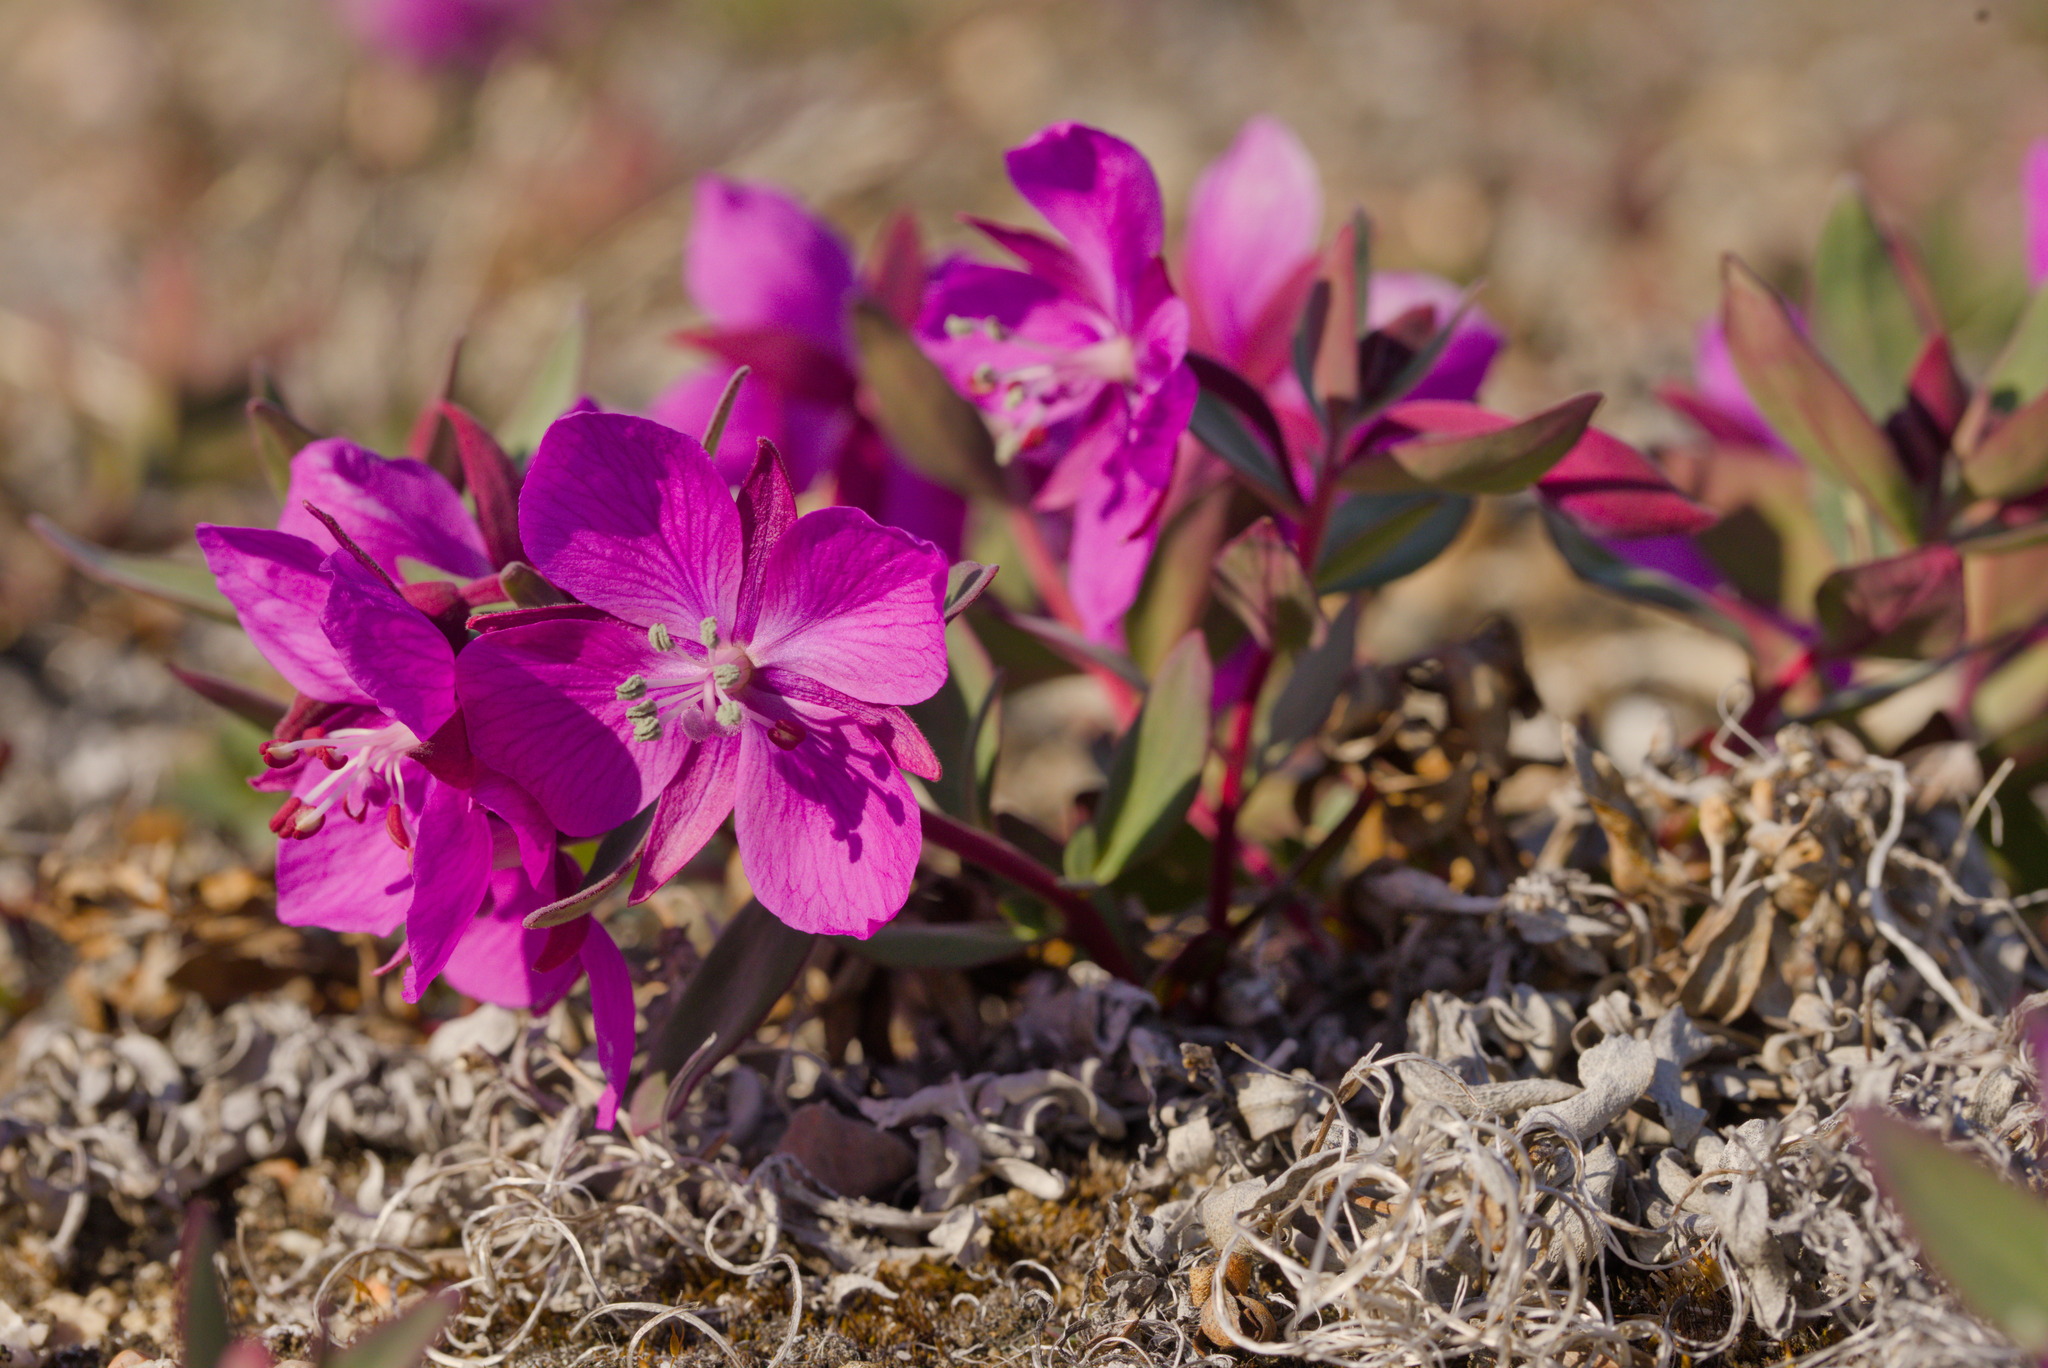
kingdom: Plantae
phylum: Tracheophyta
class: Magnoliopsida
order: Myrtales
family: Onagraceae
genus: Chamaenerion
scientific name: Chamaenerion latifolium
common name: Dwarf fireweed
